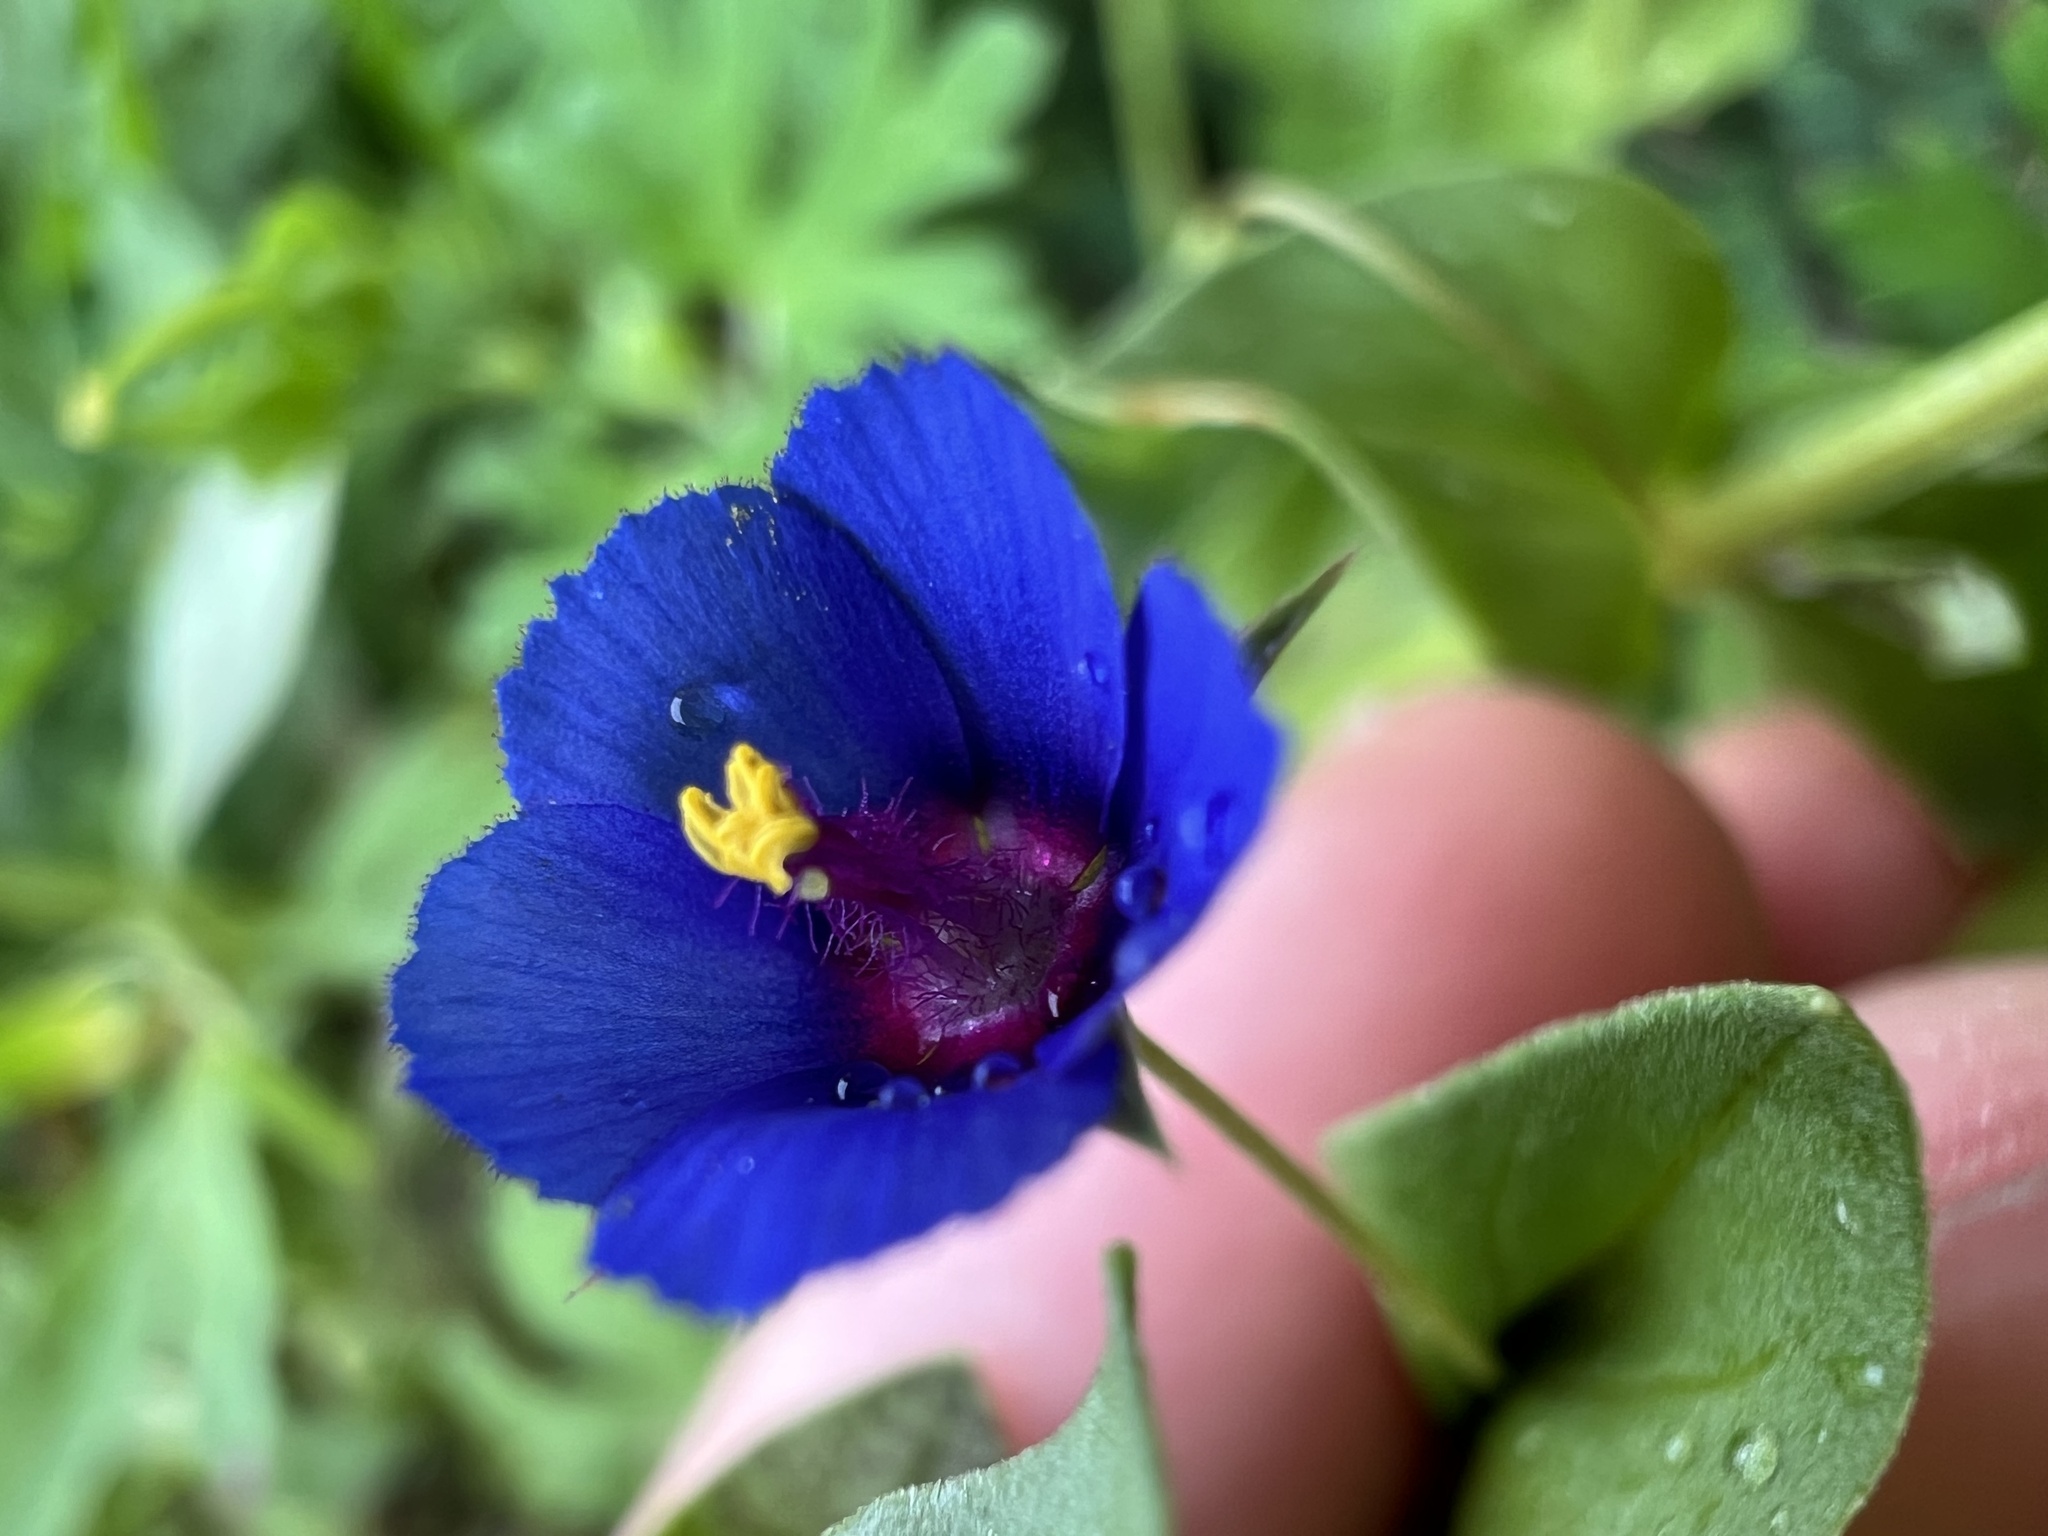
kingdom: Plantae
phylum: Tracheophyta
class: Magnoliopsida
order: Ericales
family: Primulaceae
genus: Lysimachia
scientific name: Lysimachia loeflingii
